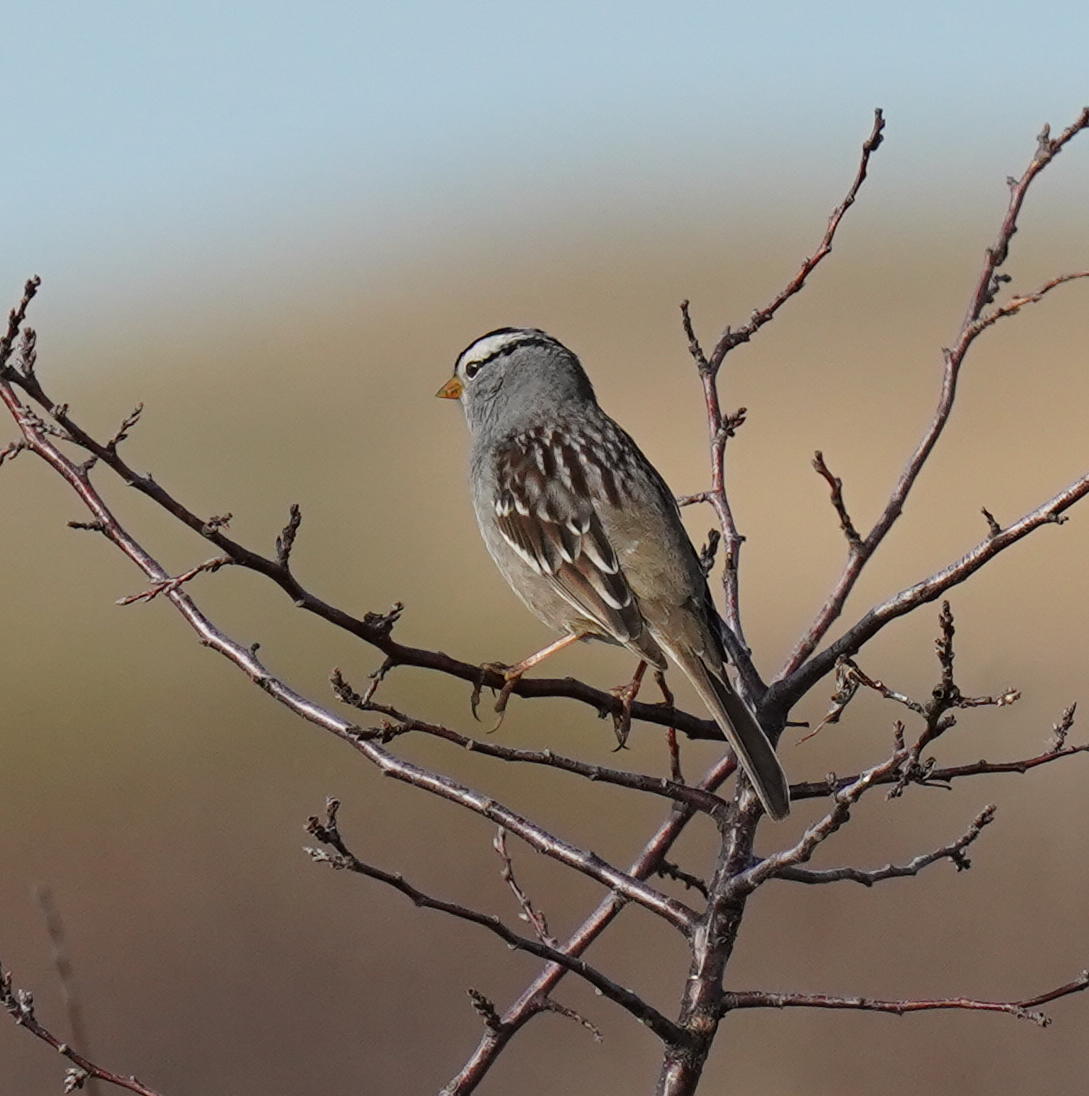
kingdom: Animalia
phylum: Chordata
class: Aves
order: Passeriformes
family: Passerellidae
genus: Zonotrichia
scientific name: Zonotrichia leucophrys
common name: White-crowned sparrow
